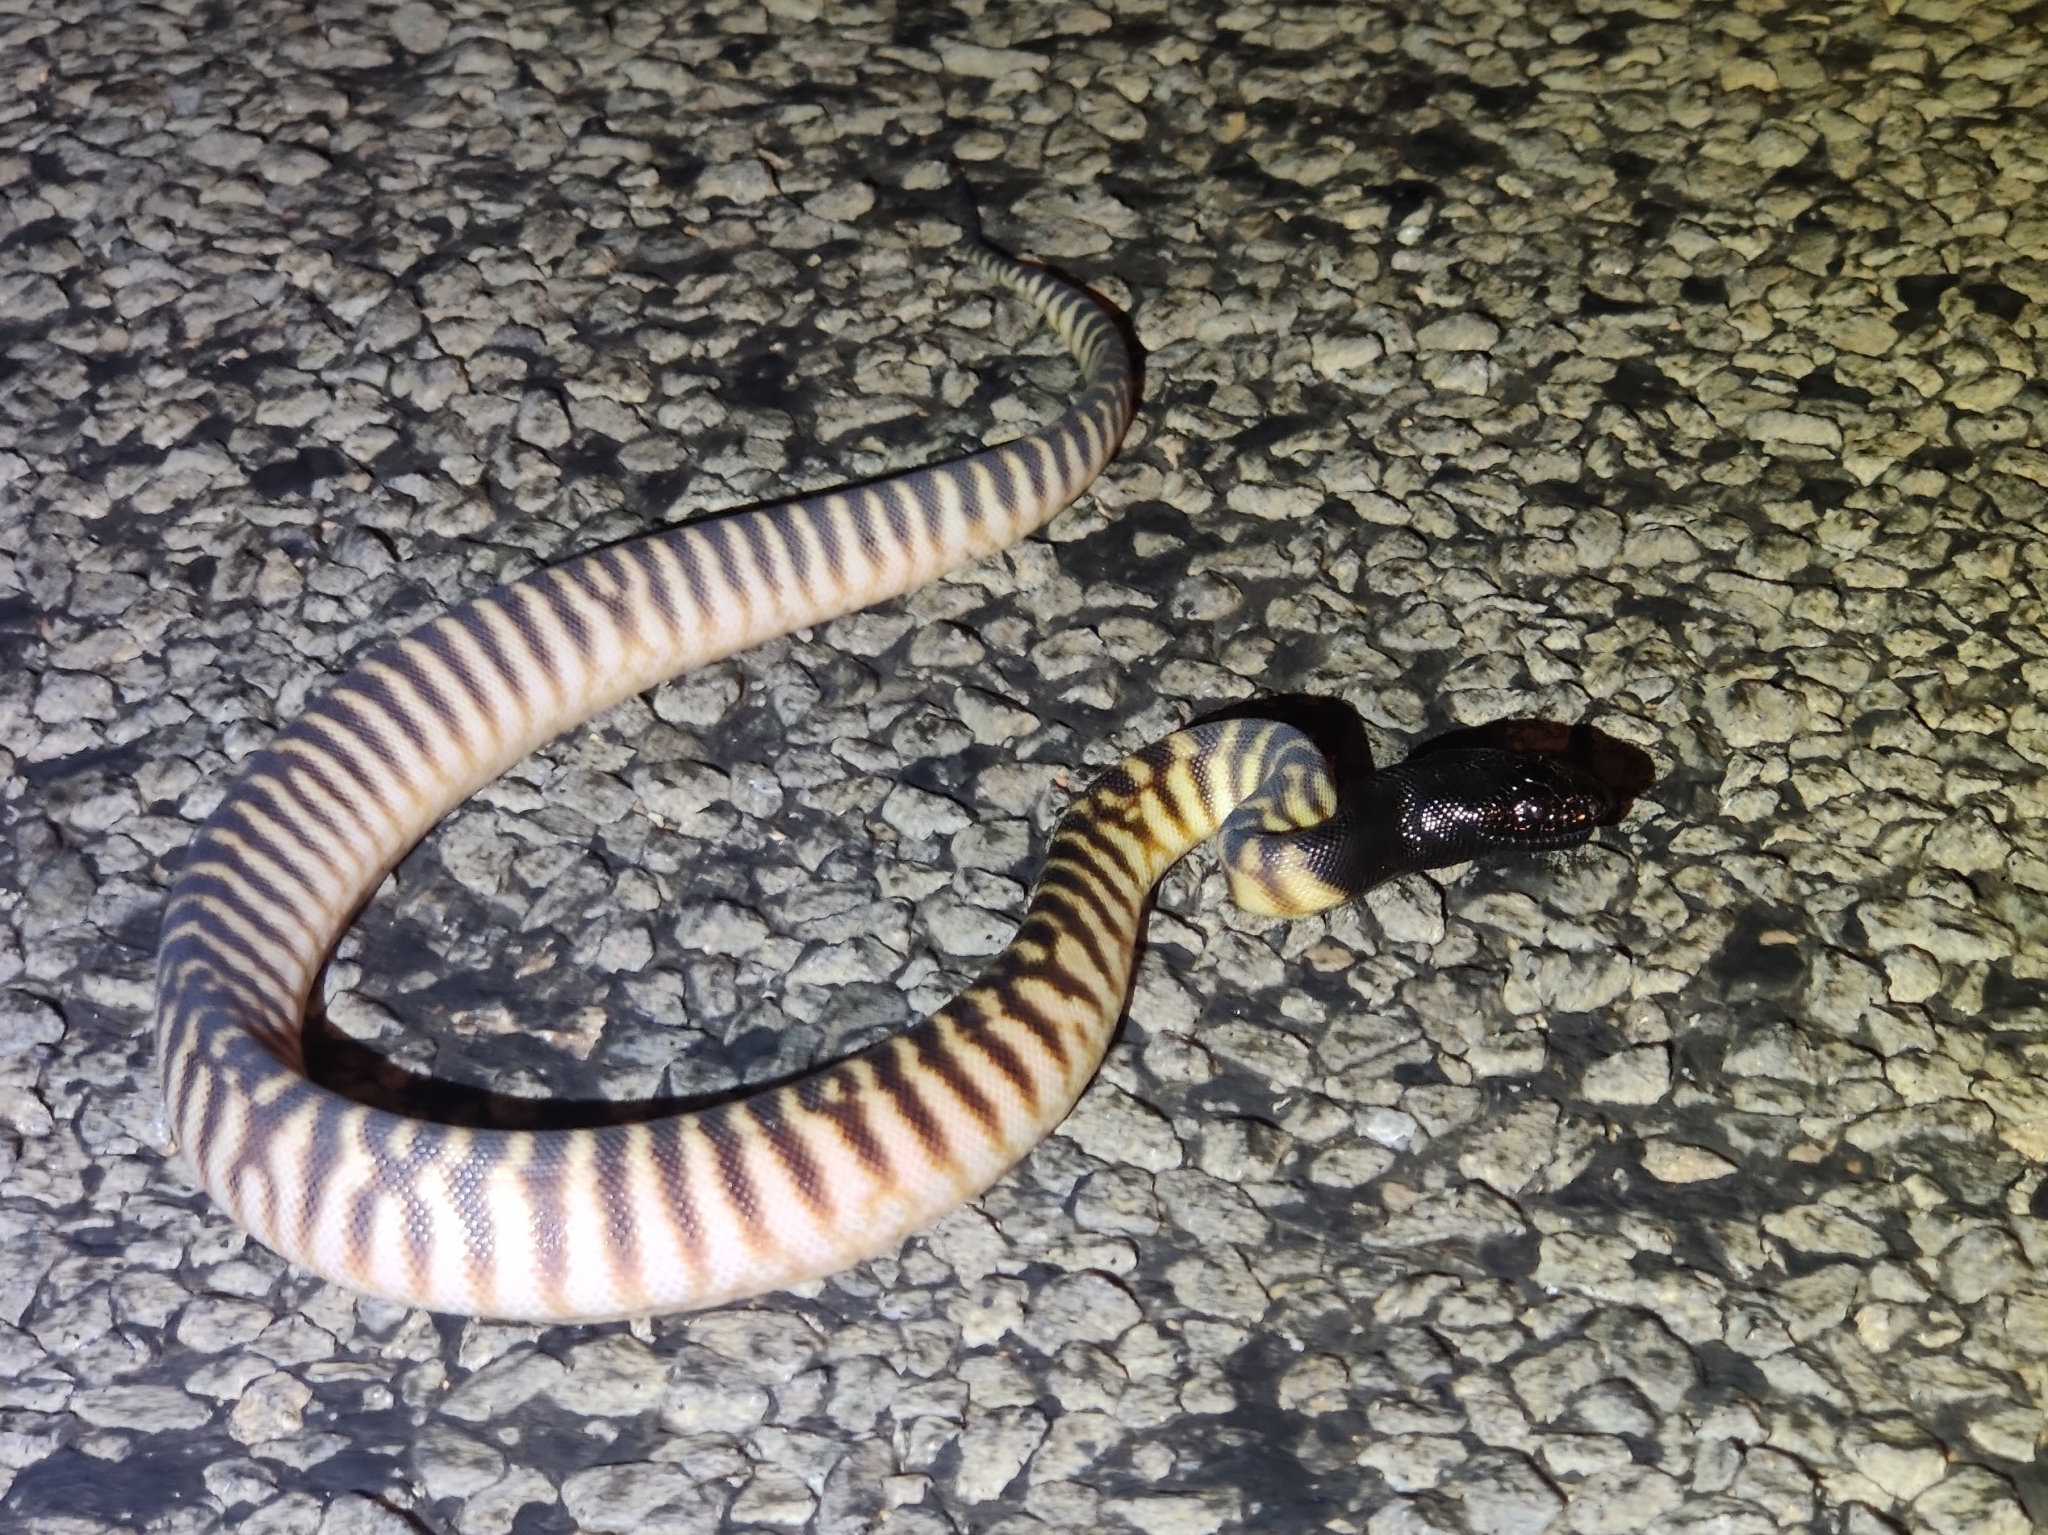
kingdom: Animalia
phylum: Chordata
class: Squamata
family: Pythonidae
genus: Aspidites
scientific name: Aspidites melanocephalus
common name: Black-headed python
